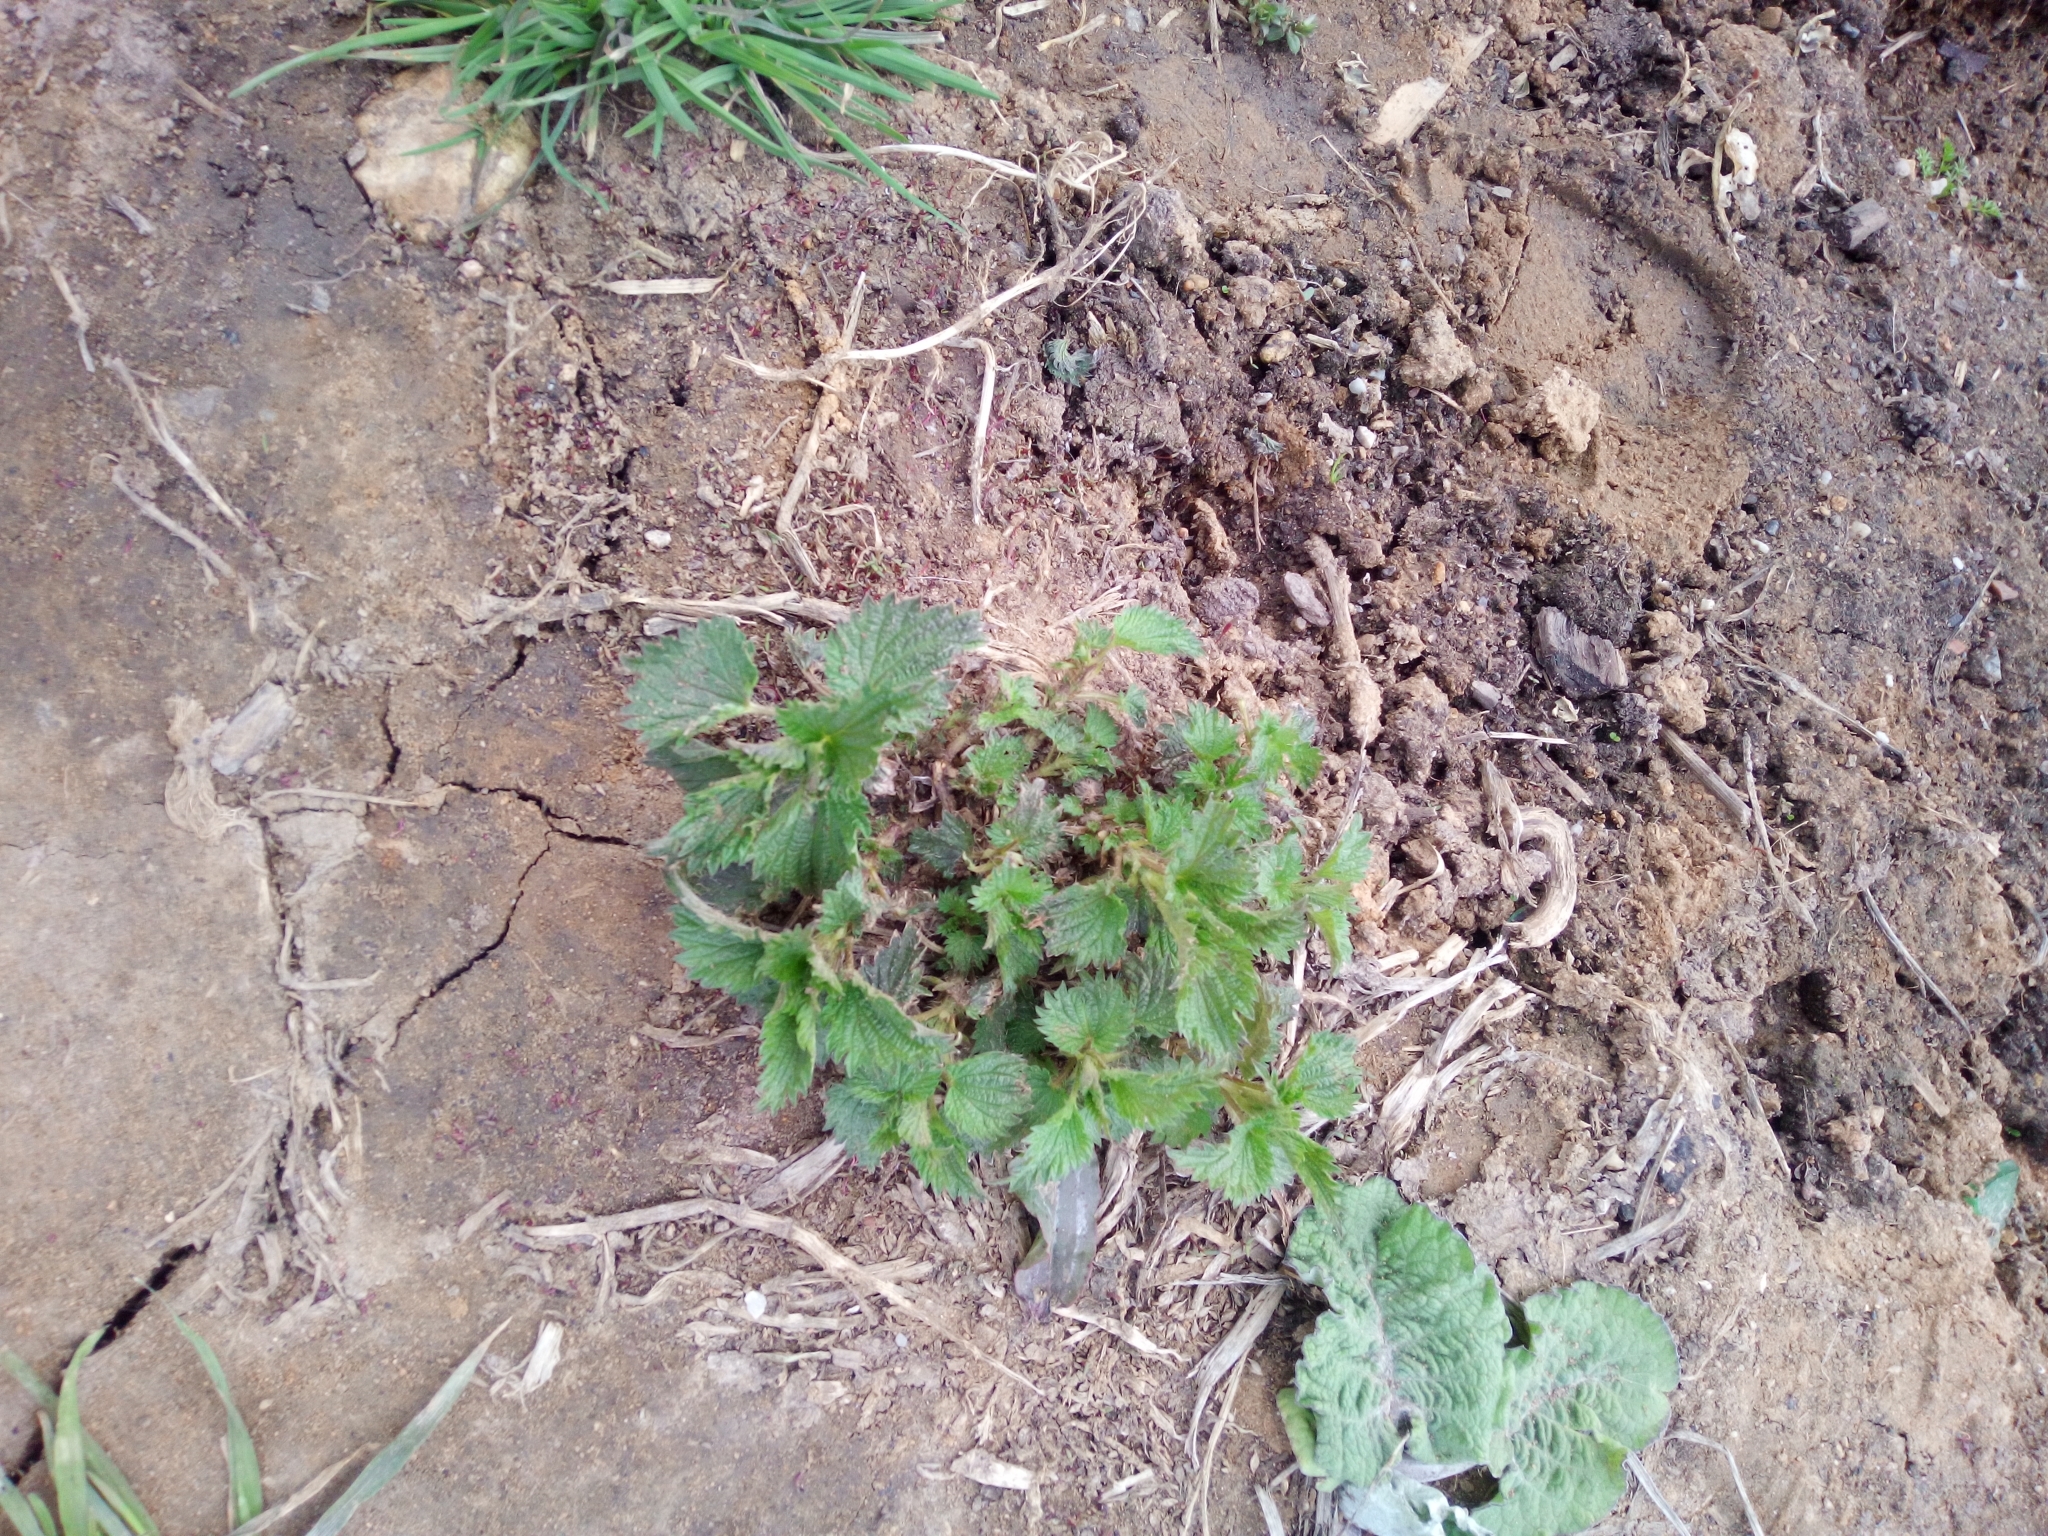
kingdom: Plantae
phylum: Tracheophyta
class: Magnoliopsida
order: Rosales
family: Urticaceae
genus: Urtica
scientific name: Urtica dioica
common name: Common nettle
